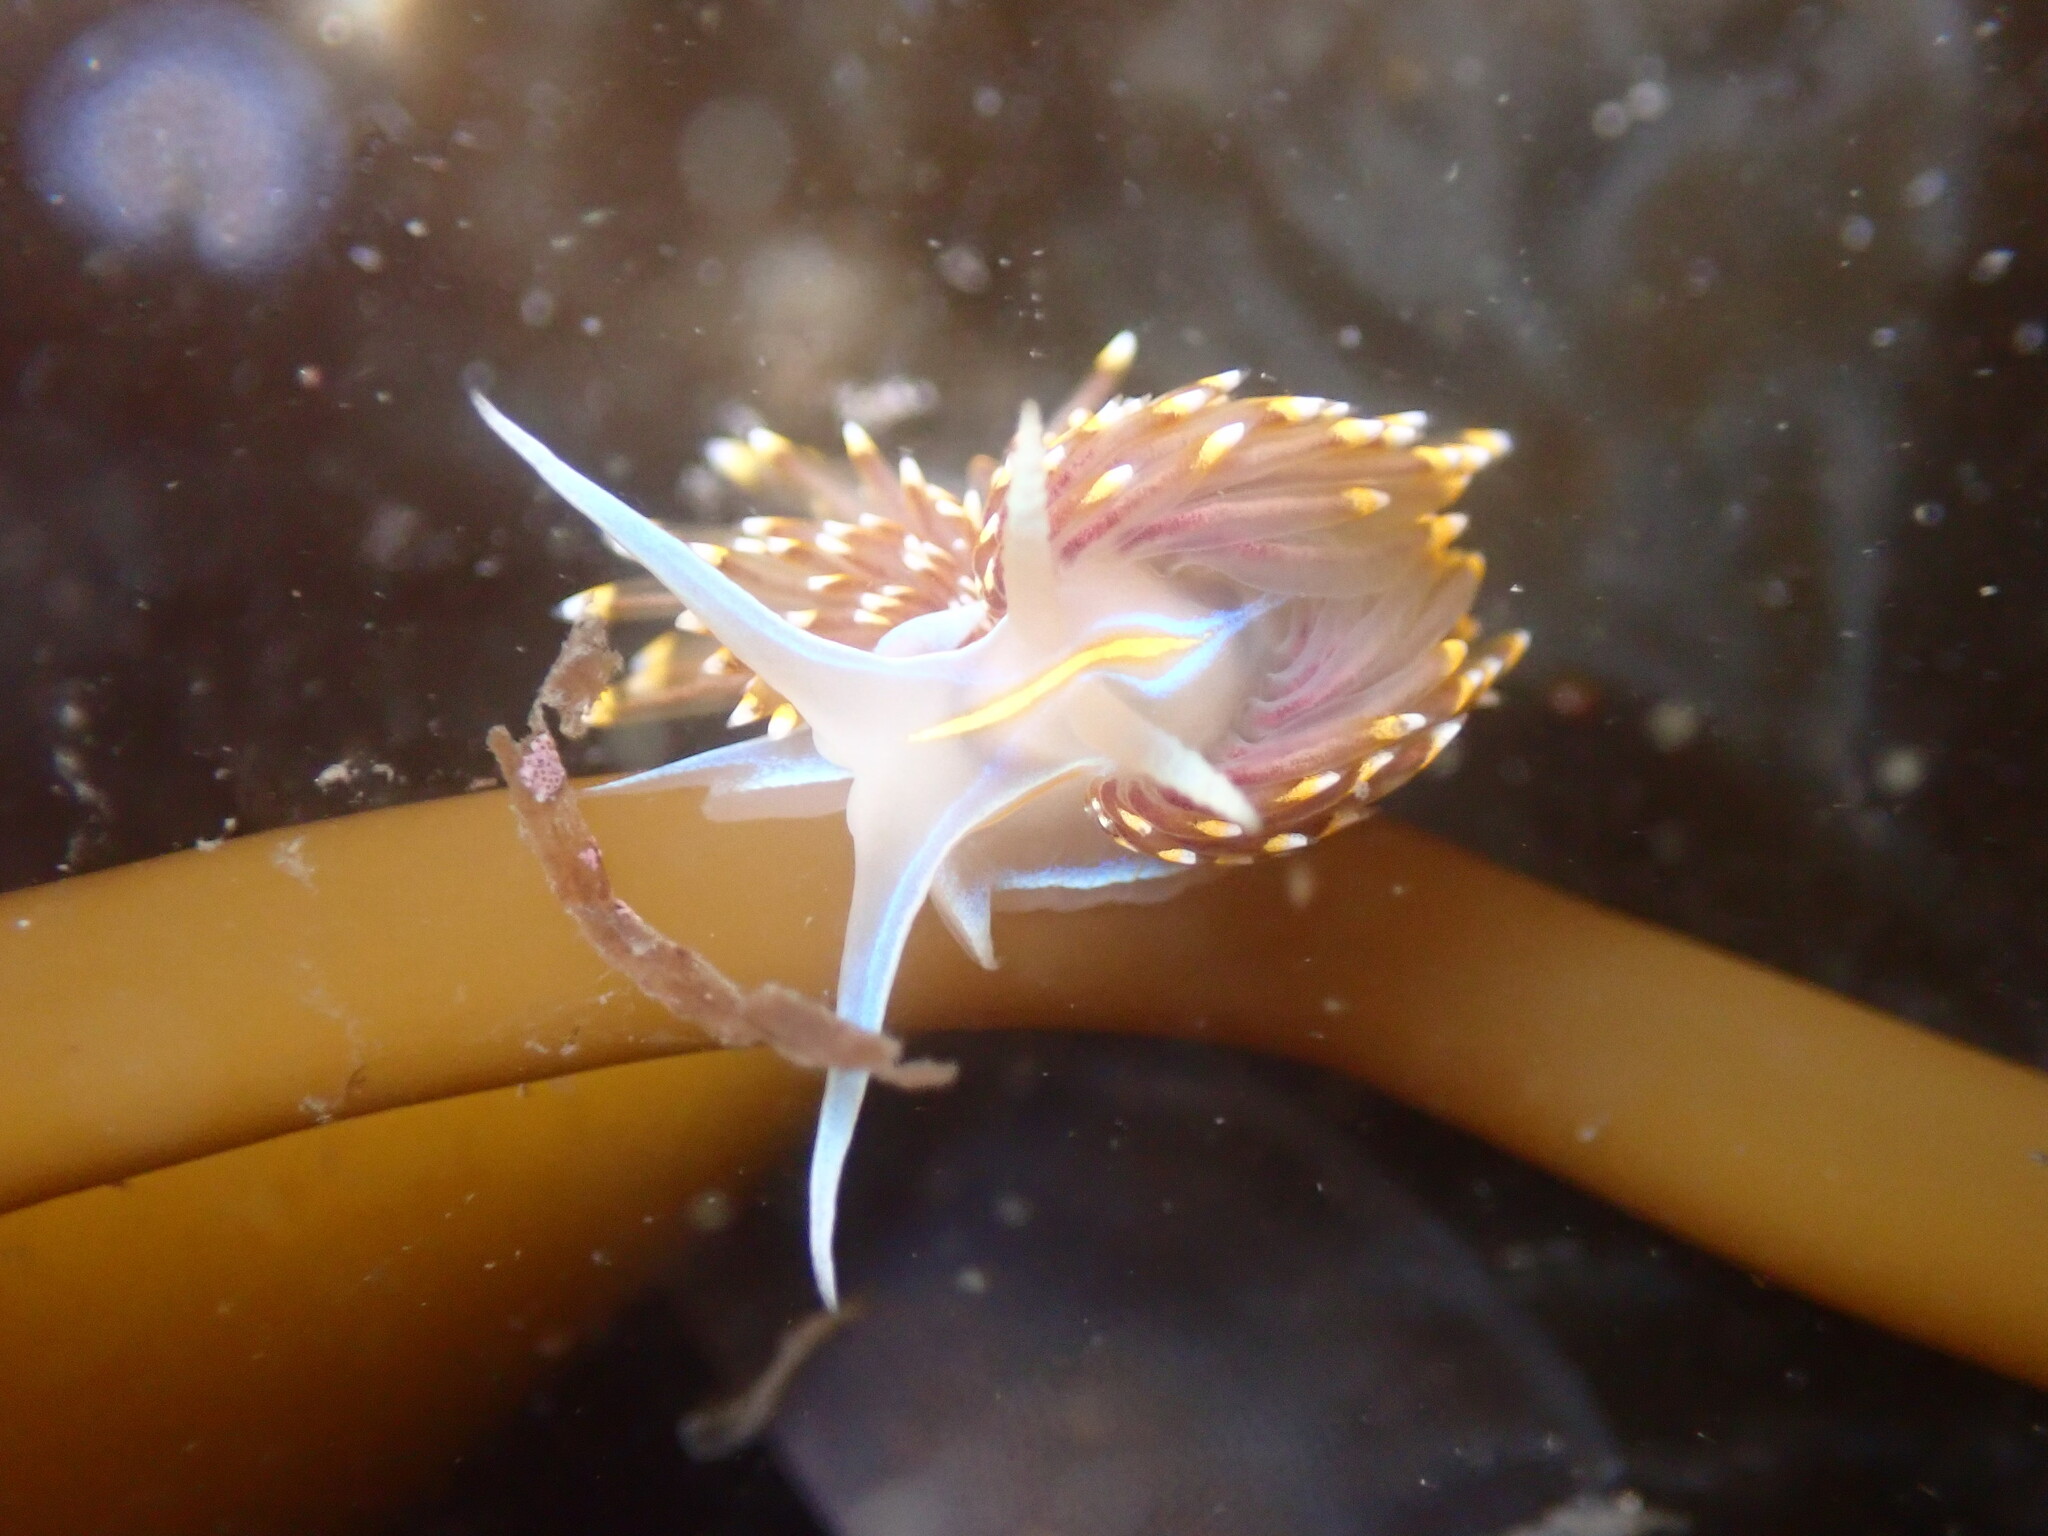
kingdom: Animalia
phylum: Mollusca
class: Gastropoda
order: Nudibranchia
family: Myrrhinidae
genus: Hermissenda
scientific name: Hermissenda opalescens
